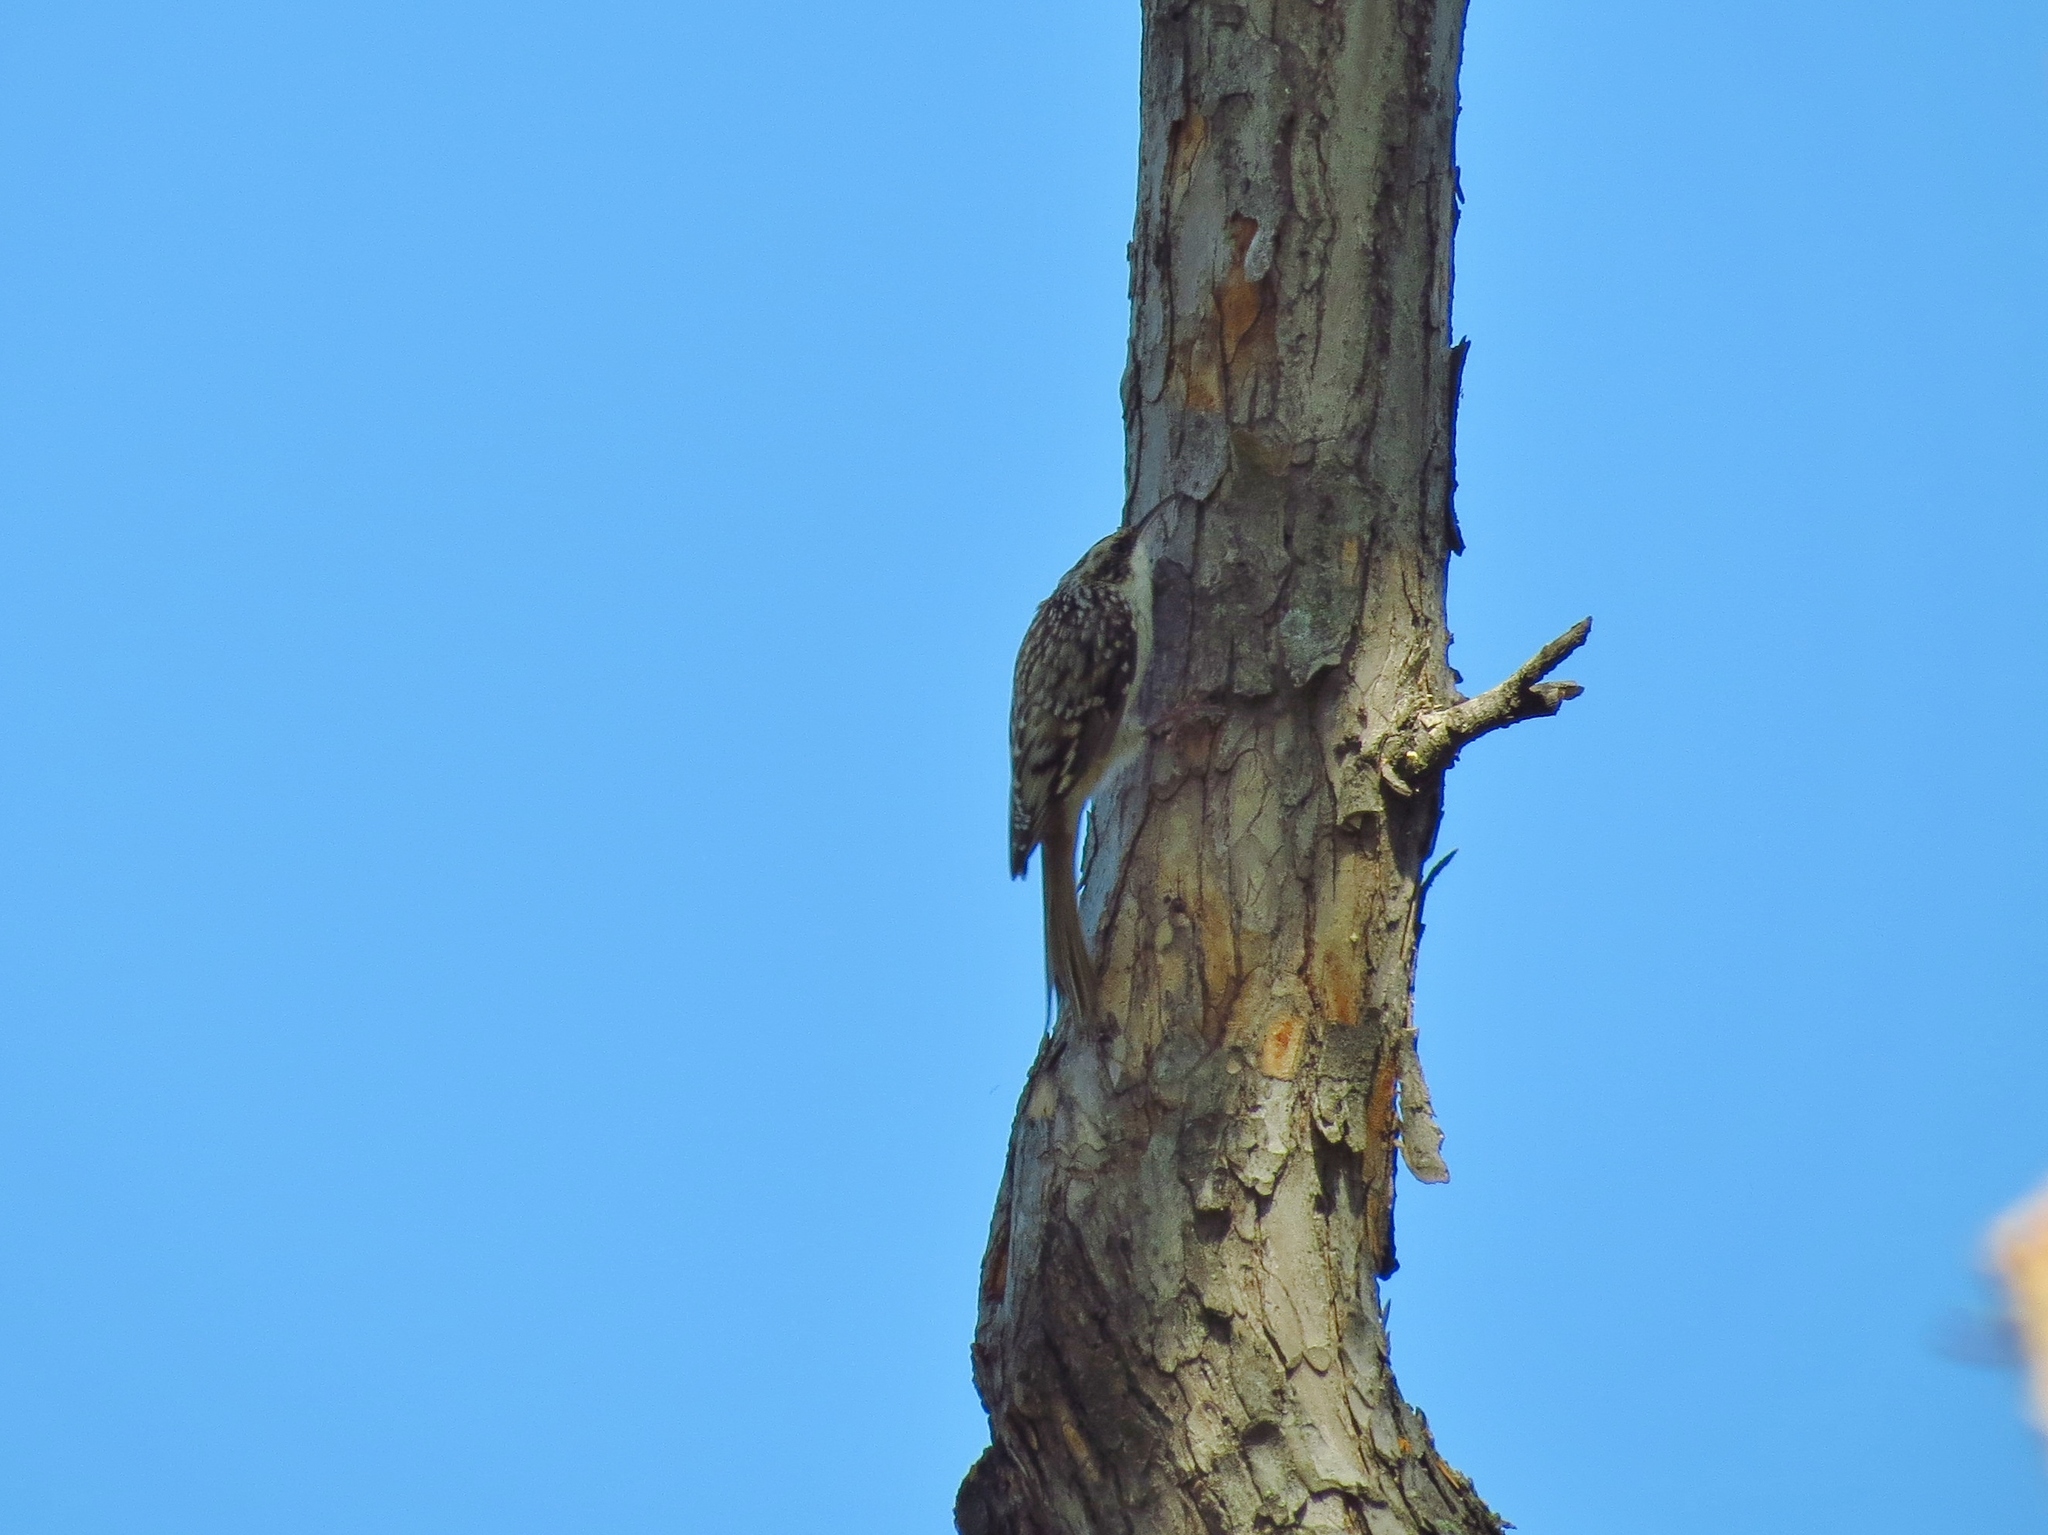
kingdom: Animalia
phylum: Chordata
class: Aves
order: Passeriformes
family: Certhiidae
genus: Certhia
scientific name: Certhia americana
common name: Brown creeper
